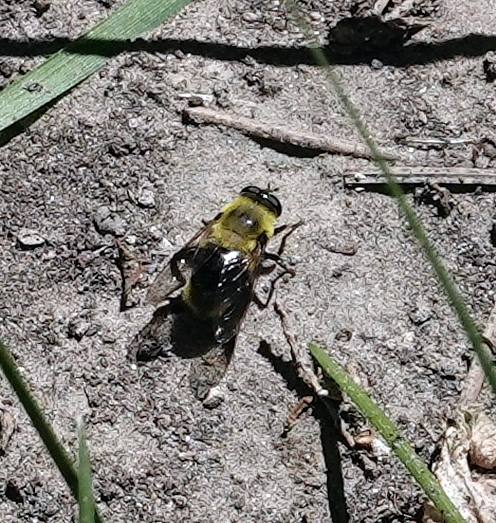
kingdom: Animalia
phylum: Arthropoda
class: Insecta
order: Diptera
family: Syrphidae
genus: Imatisma
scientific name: Imatisma bautias
